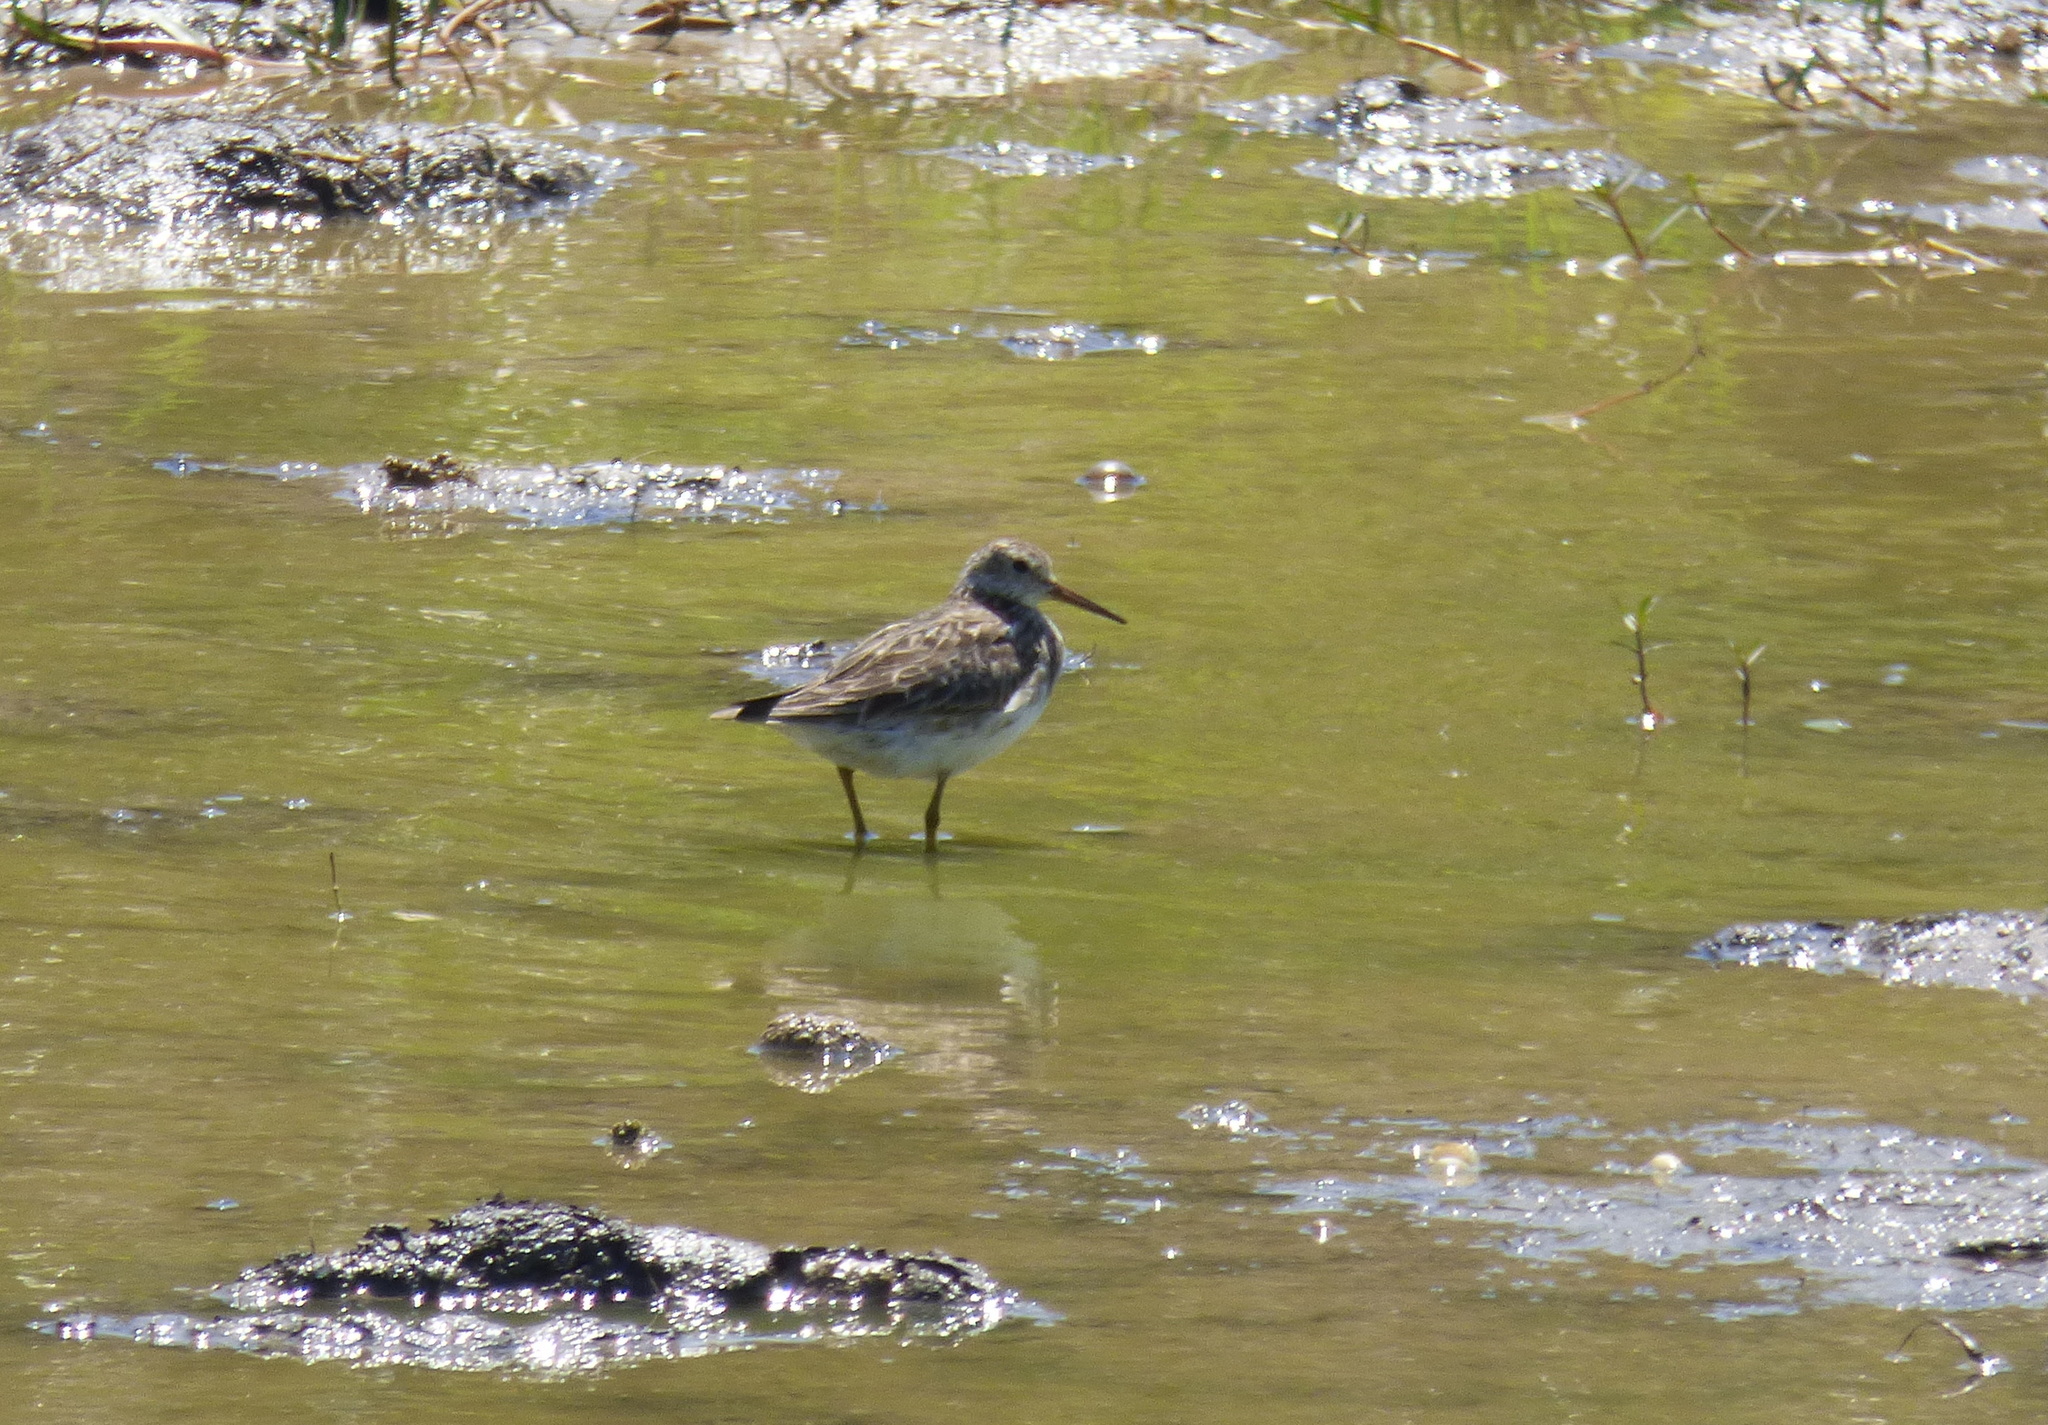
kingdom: Animalia
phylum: Chordata
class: Aves
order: Charadriiformes
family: Scolopacidae
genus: Calidris
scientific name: Calidris melanotos
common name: Pectoral sandpiper
